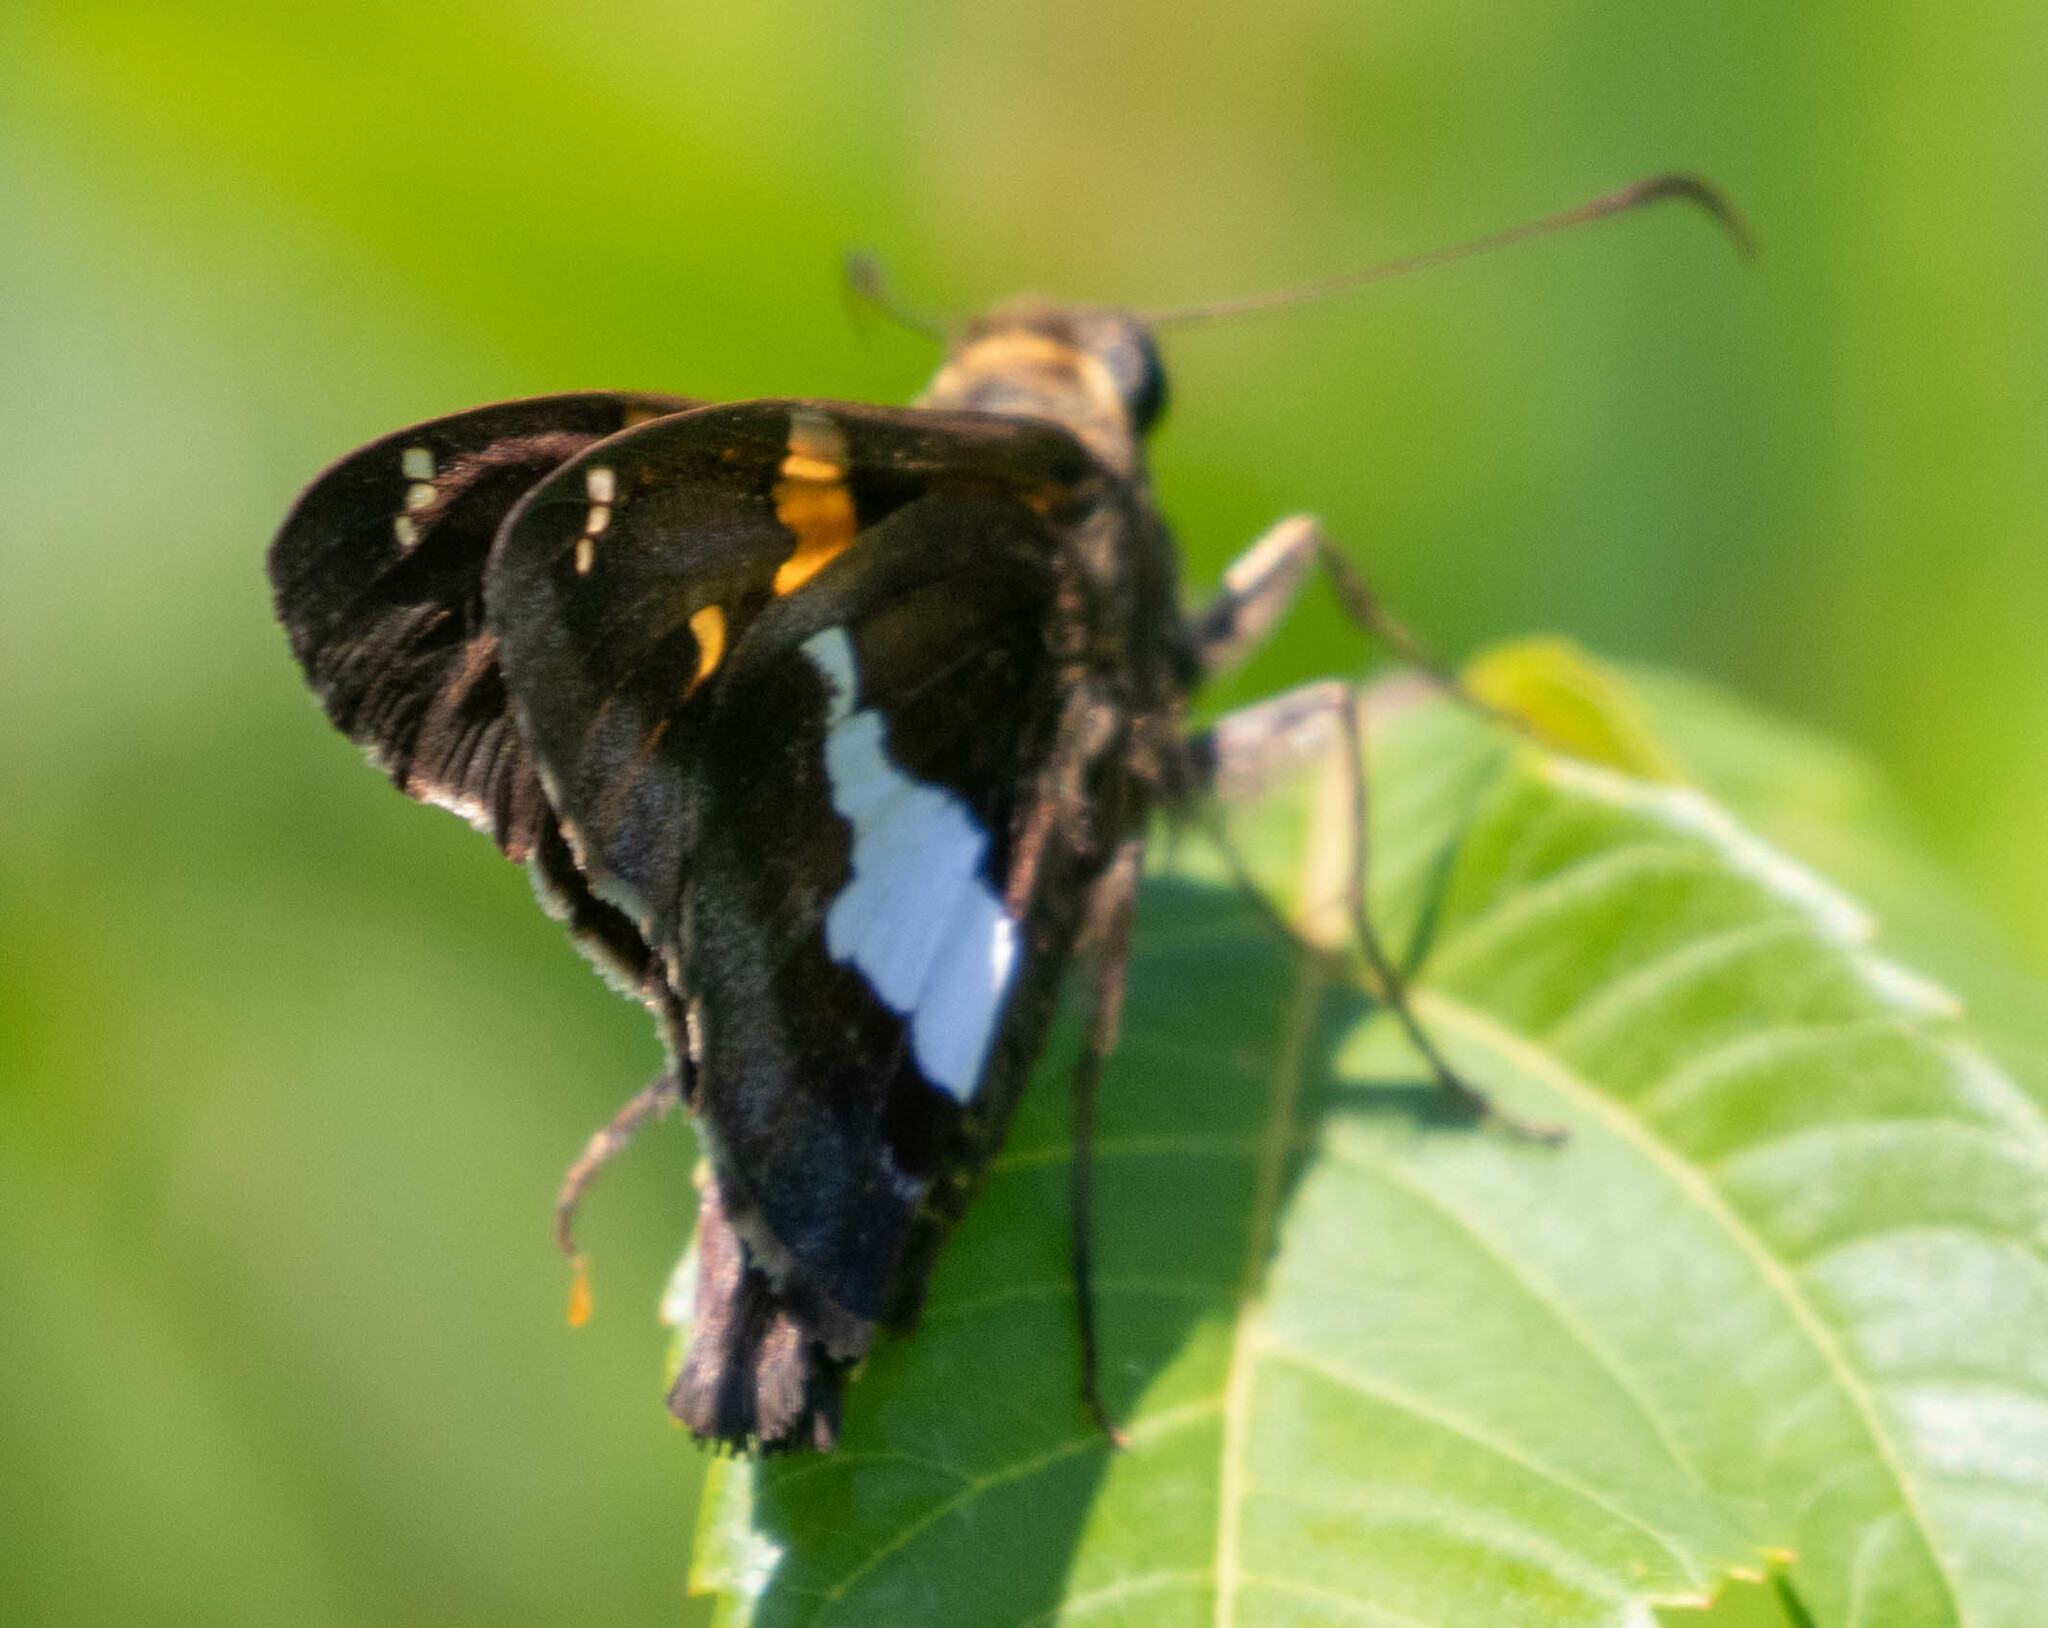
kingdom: Animalia
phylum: Arthropoda
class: Insecta
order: Lepidoptera
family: Hesperiidae
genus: Epargyreus
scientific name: Epargyreus clarus
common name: Silver-spotted skipper
